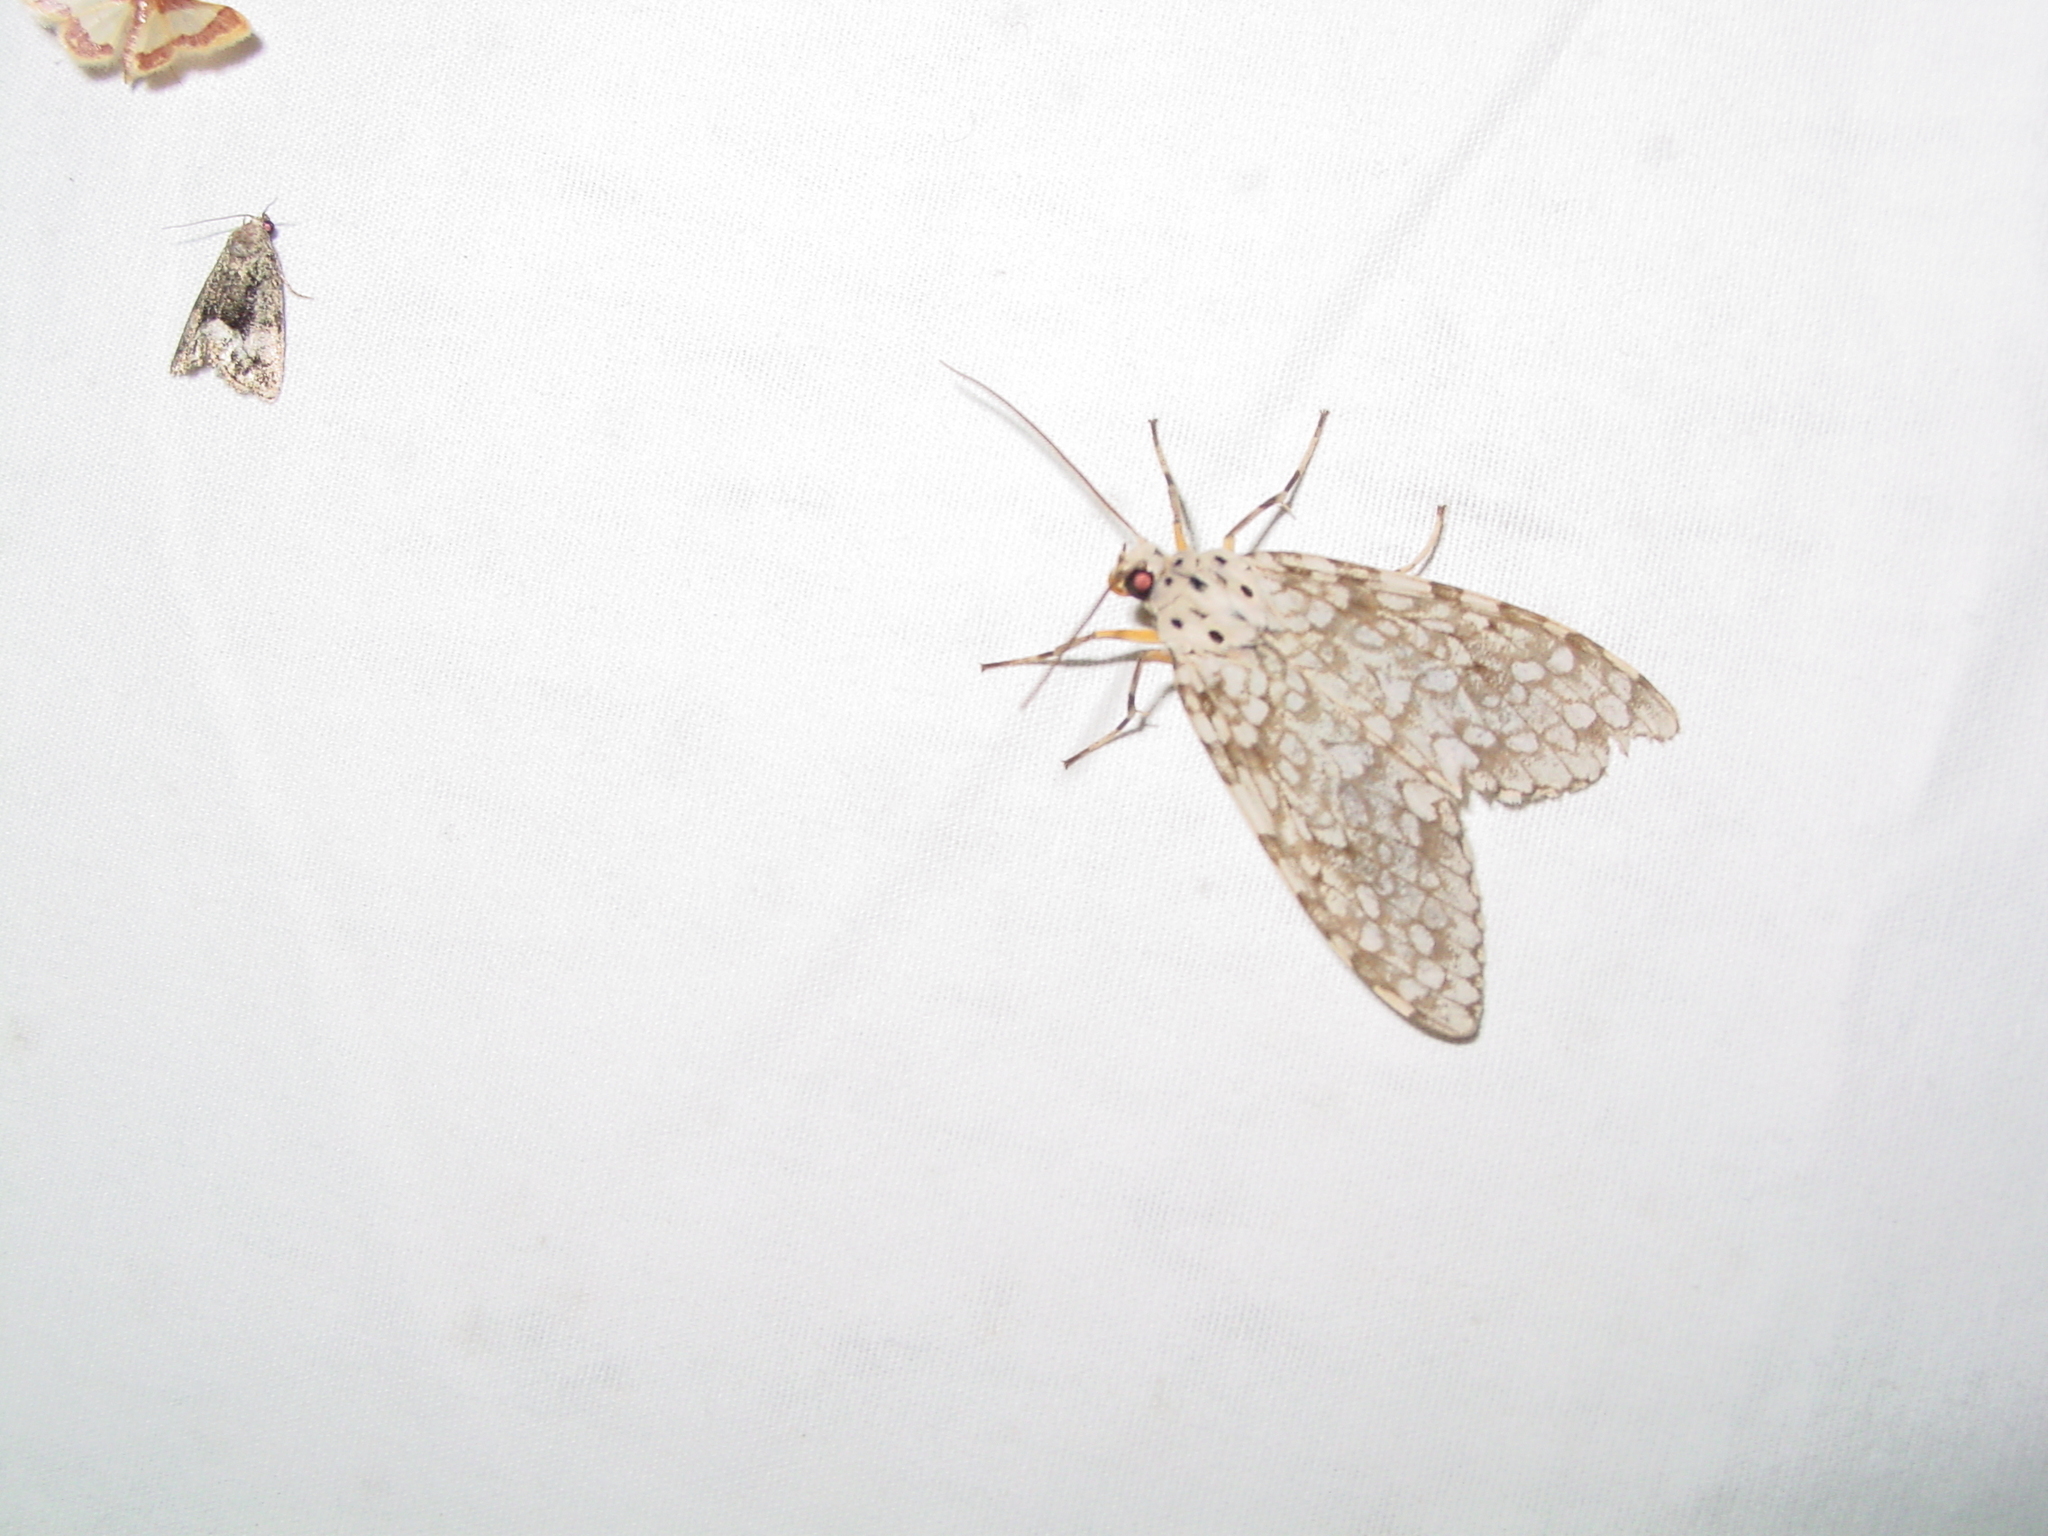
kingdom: Animalia
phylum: Arthropoda
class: Insecta
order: Lepidoptera
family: Erebidae
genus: Carales
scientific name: Carales arizonensis
